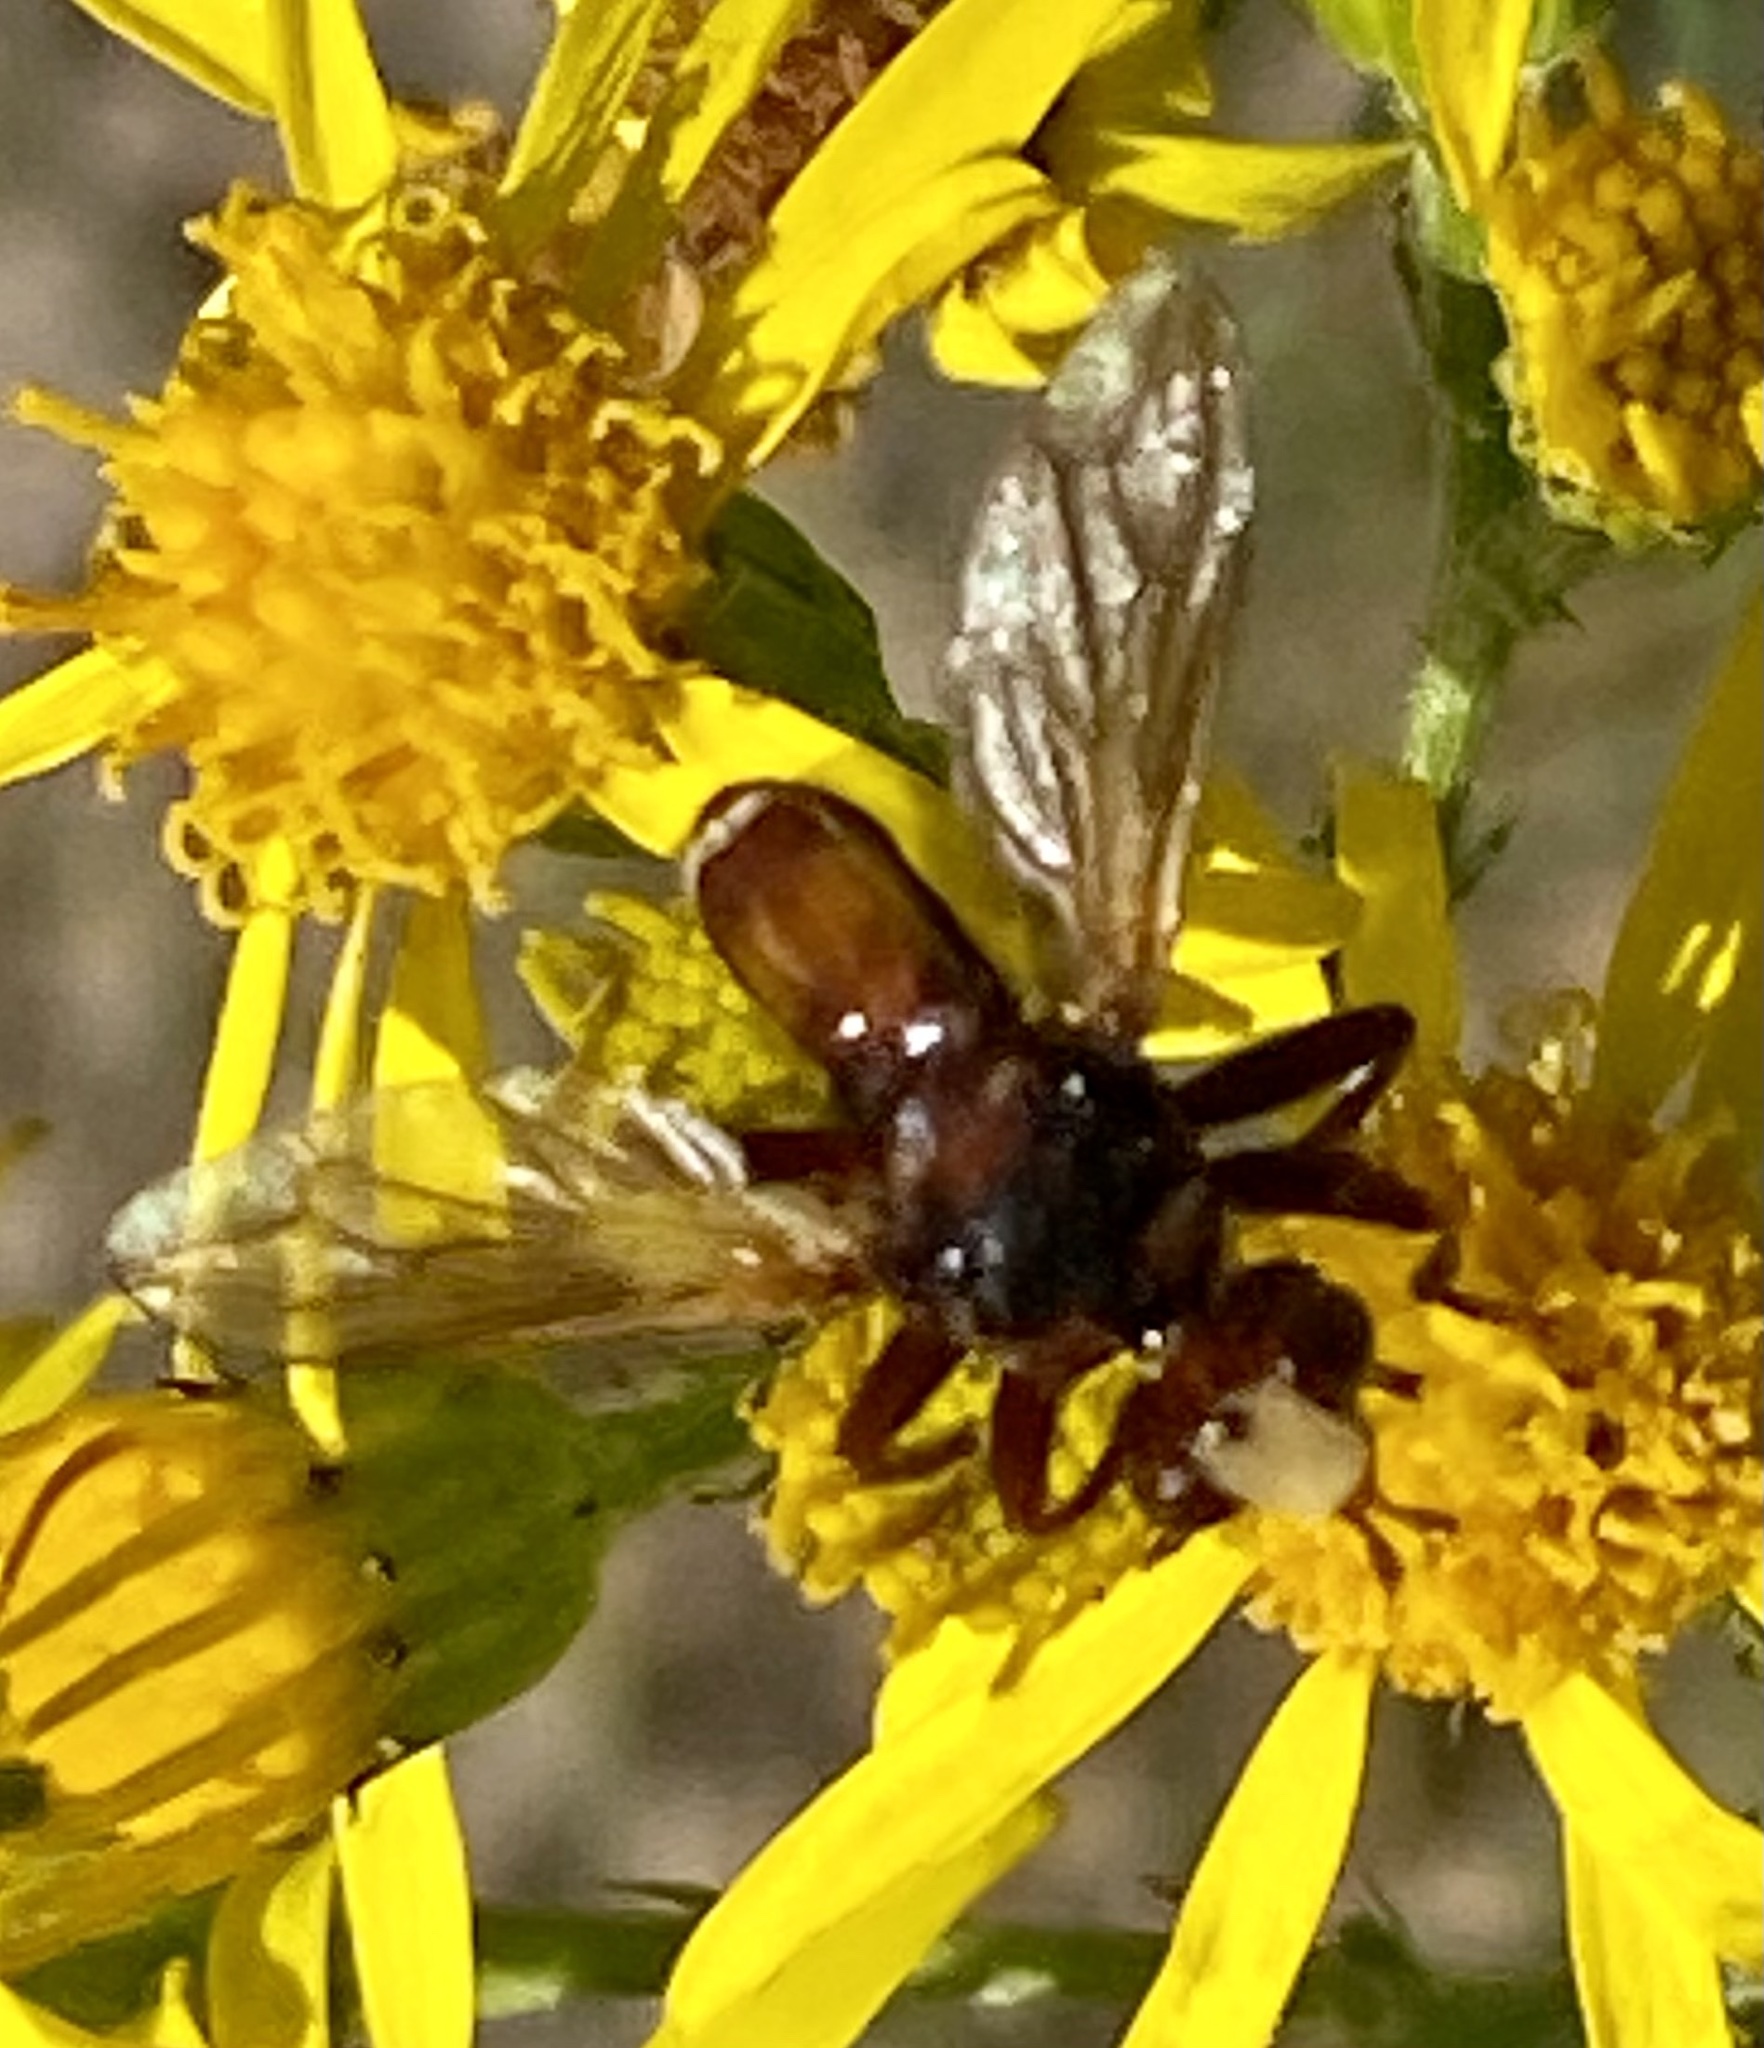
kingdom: Animalia
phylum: Arthropoda
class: Insecta
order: Diptera
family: Conopidae
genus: Sicus
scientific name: Sicus ferrugineus
